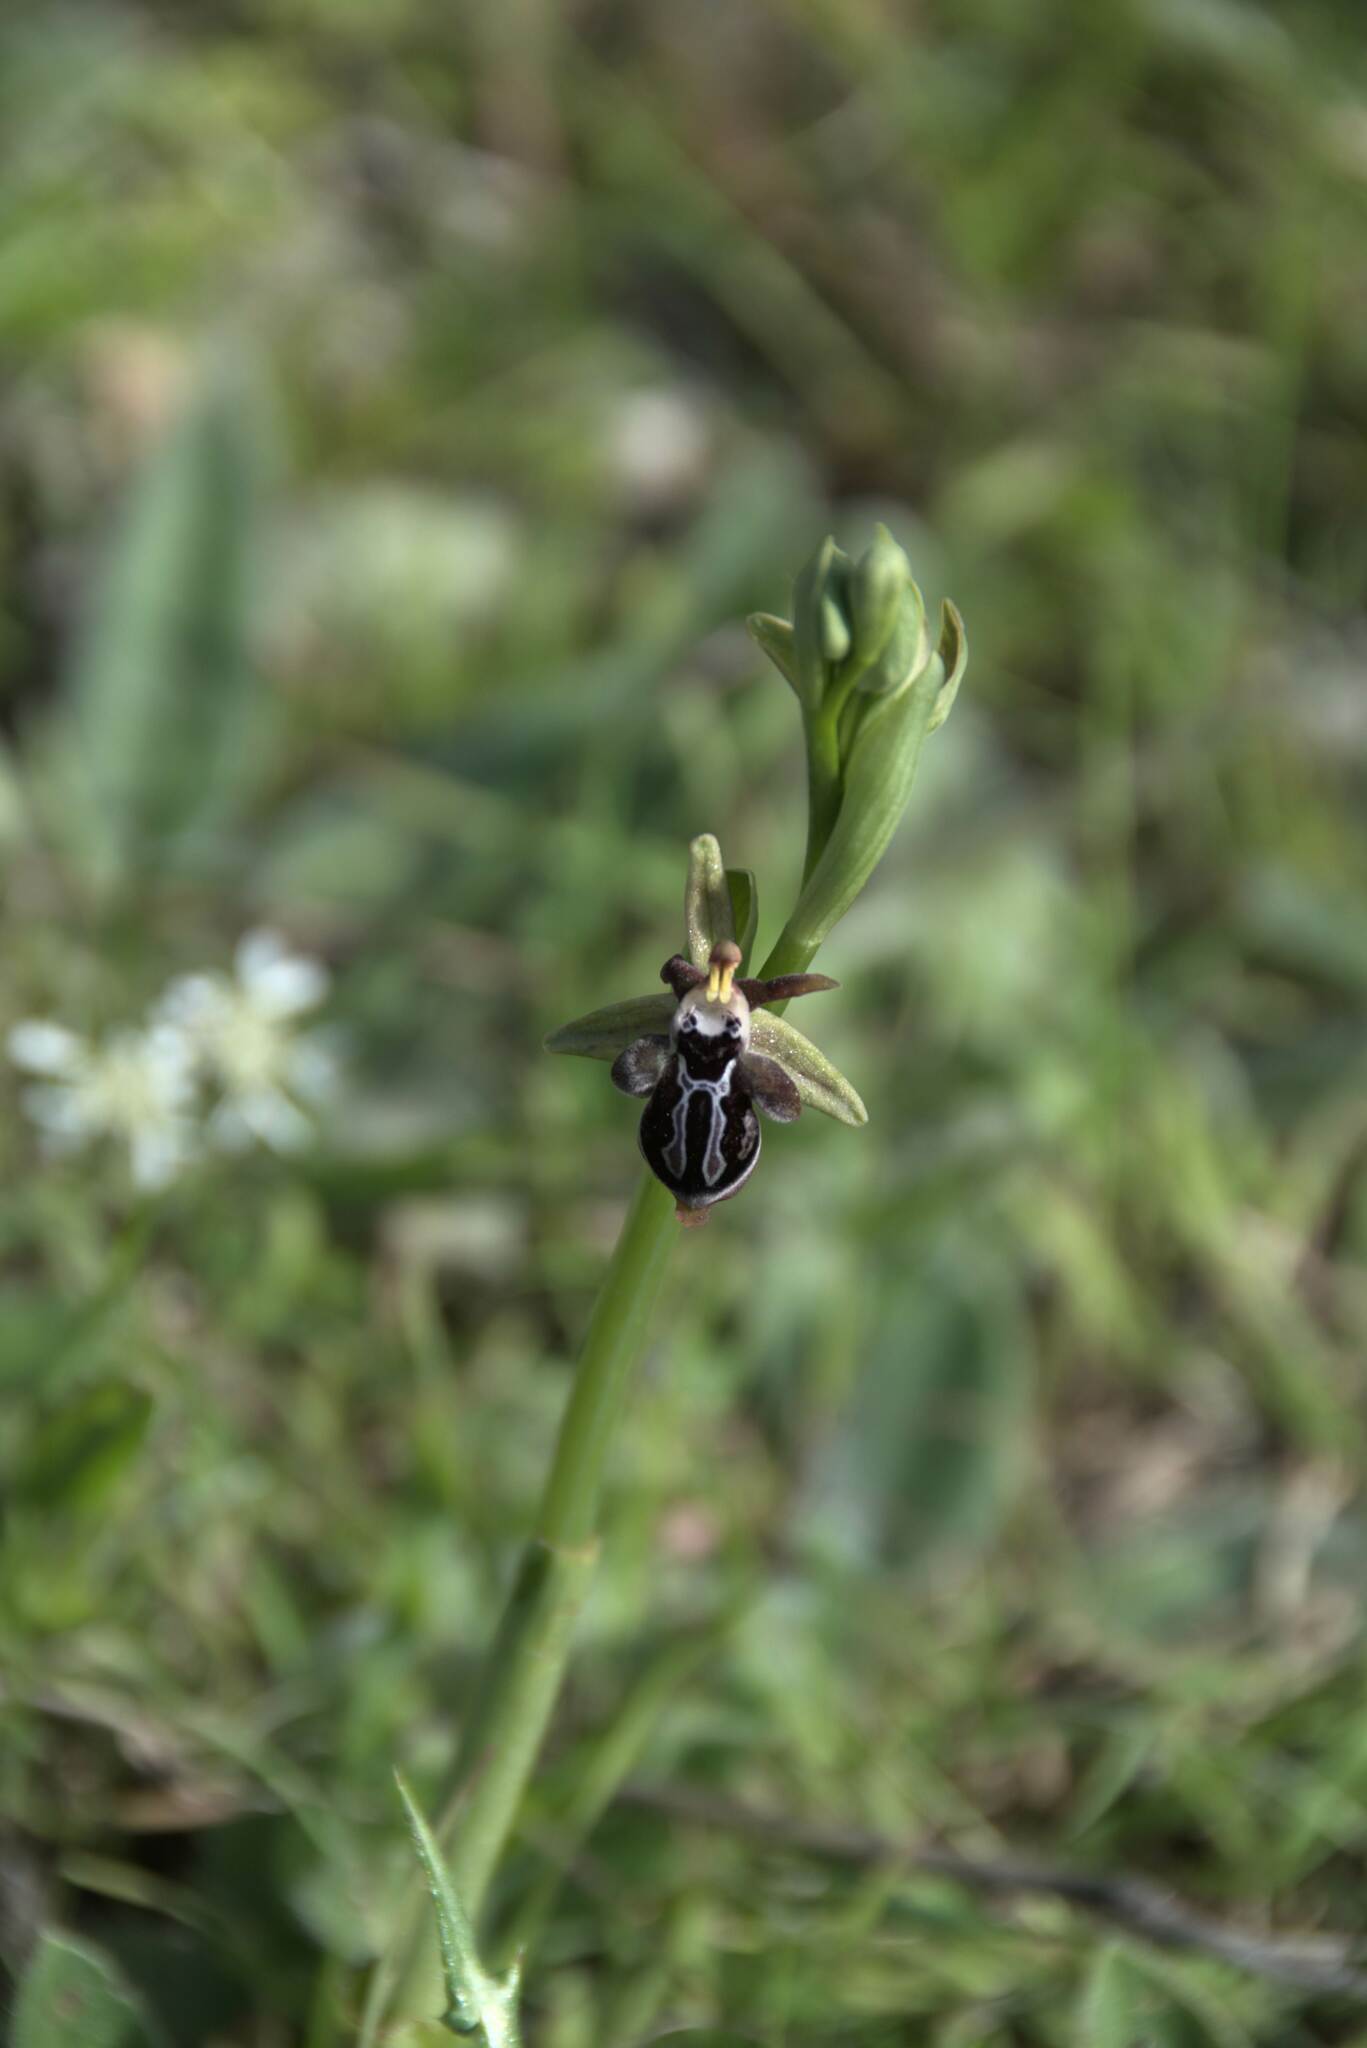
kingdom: Plantae
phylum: Tracheophyta
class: Liliopsida
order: Asparagales
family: Orchidaceae
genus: Ophrys
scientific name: Ophrys cretica
